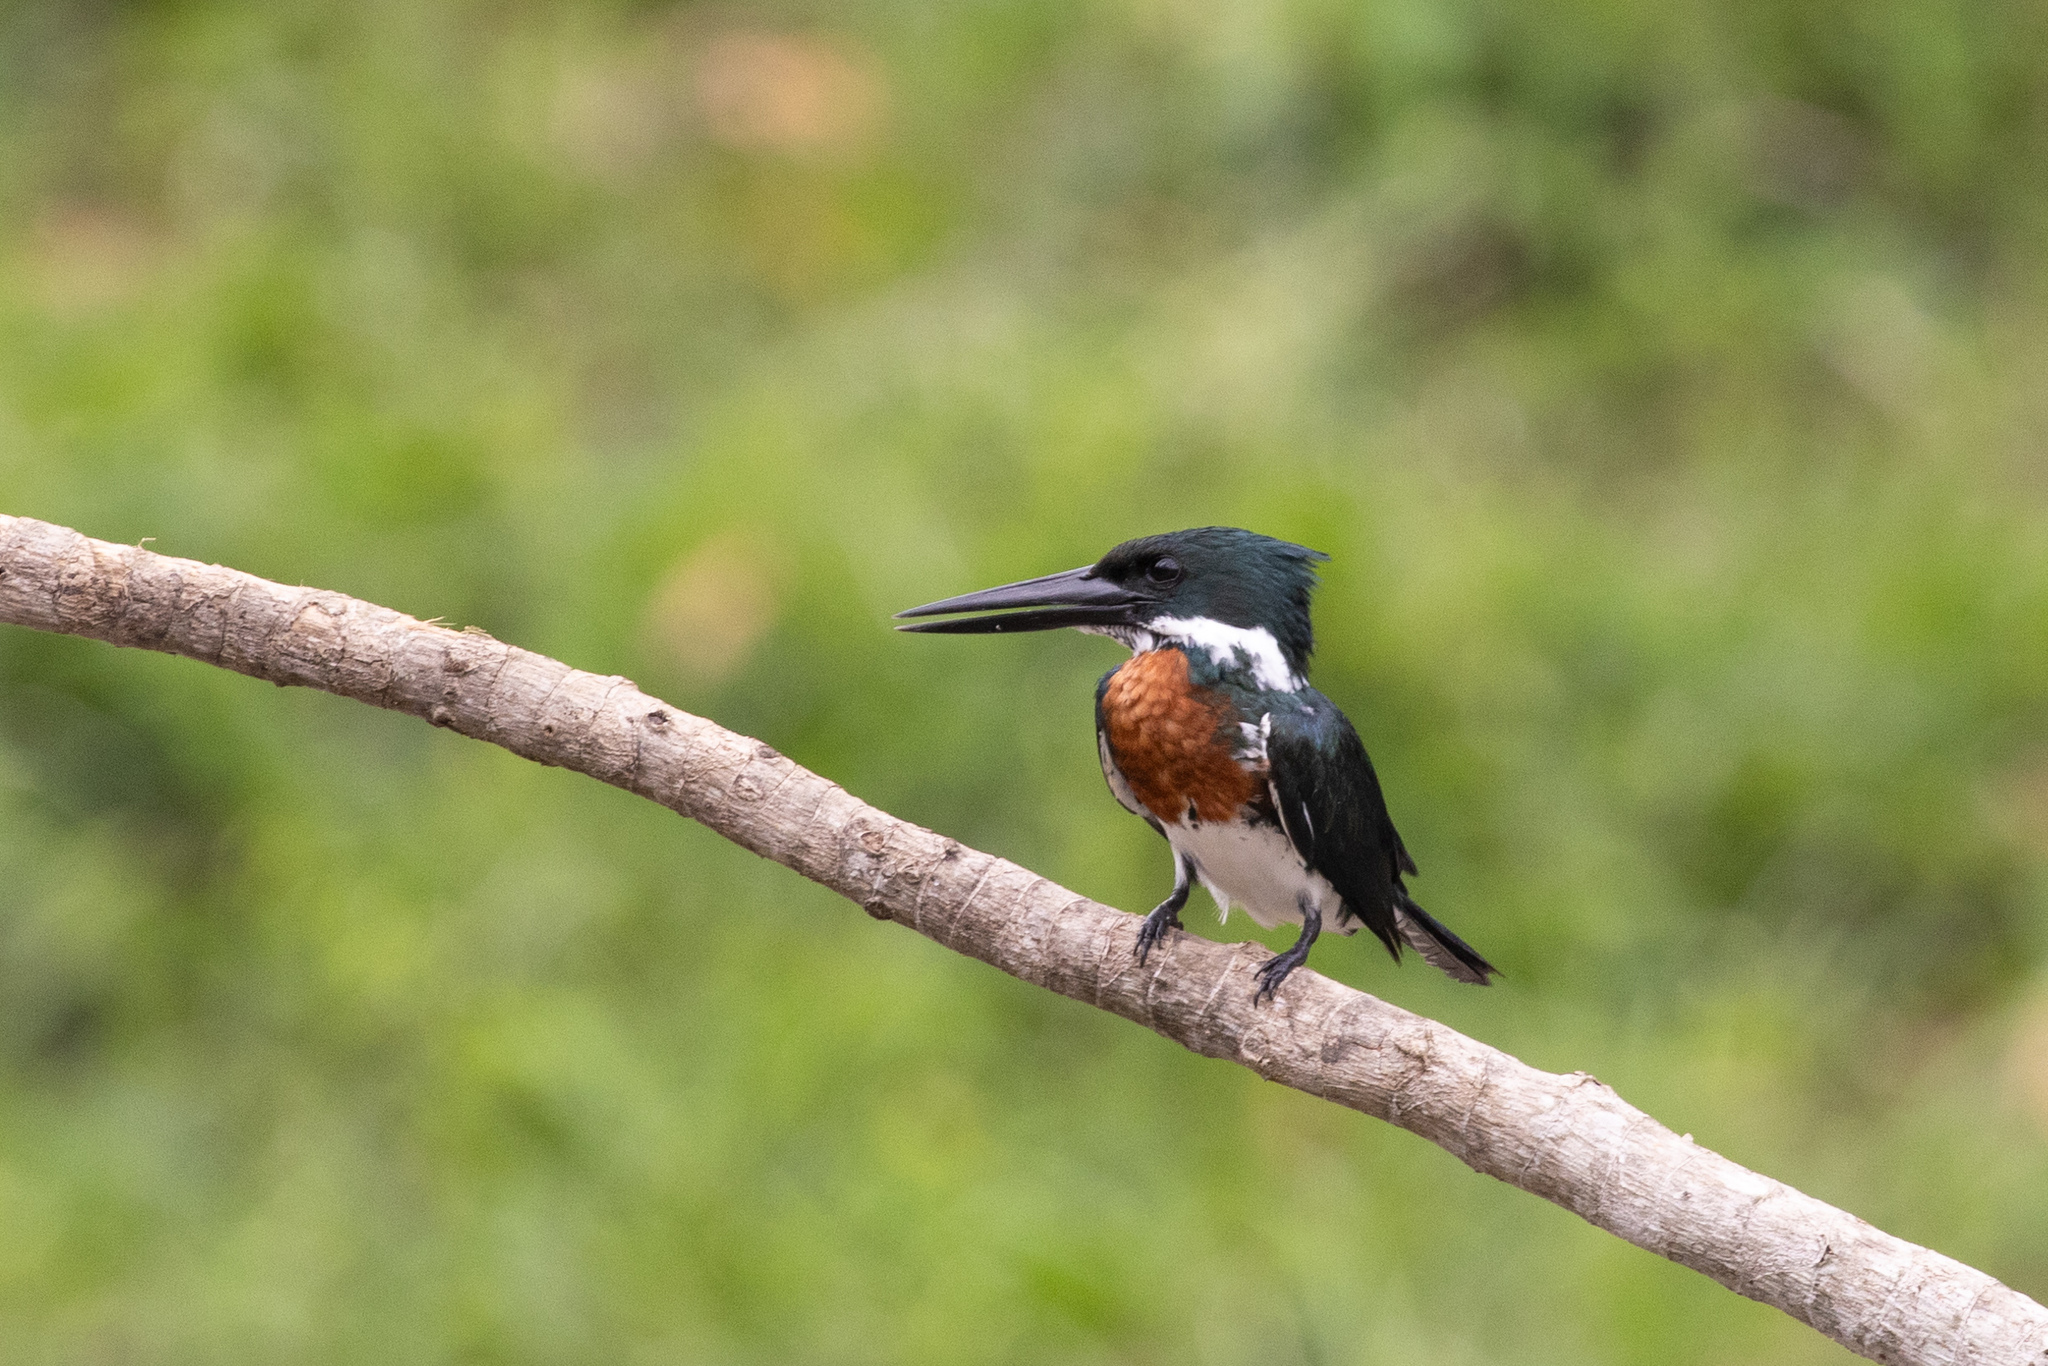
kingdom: Animalia
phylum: Chordata
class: Aves
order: Coraciiformes
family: Alcedinidae
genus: Chloroceryle
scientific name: Chloroceryle amazona
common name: Amazon kingfisher
